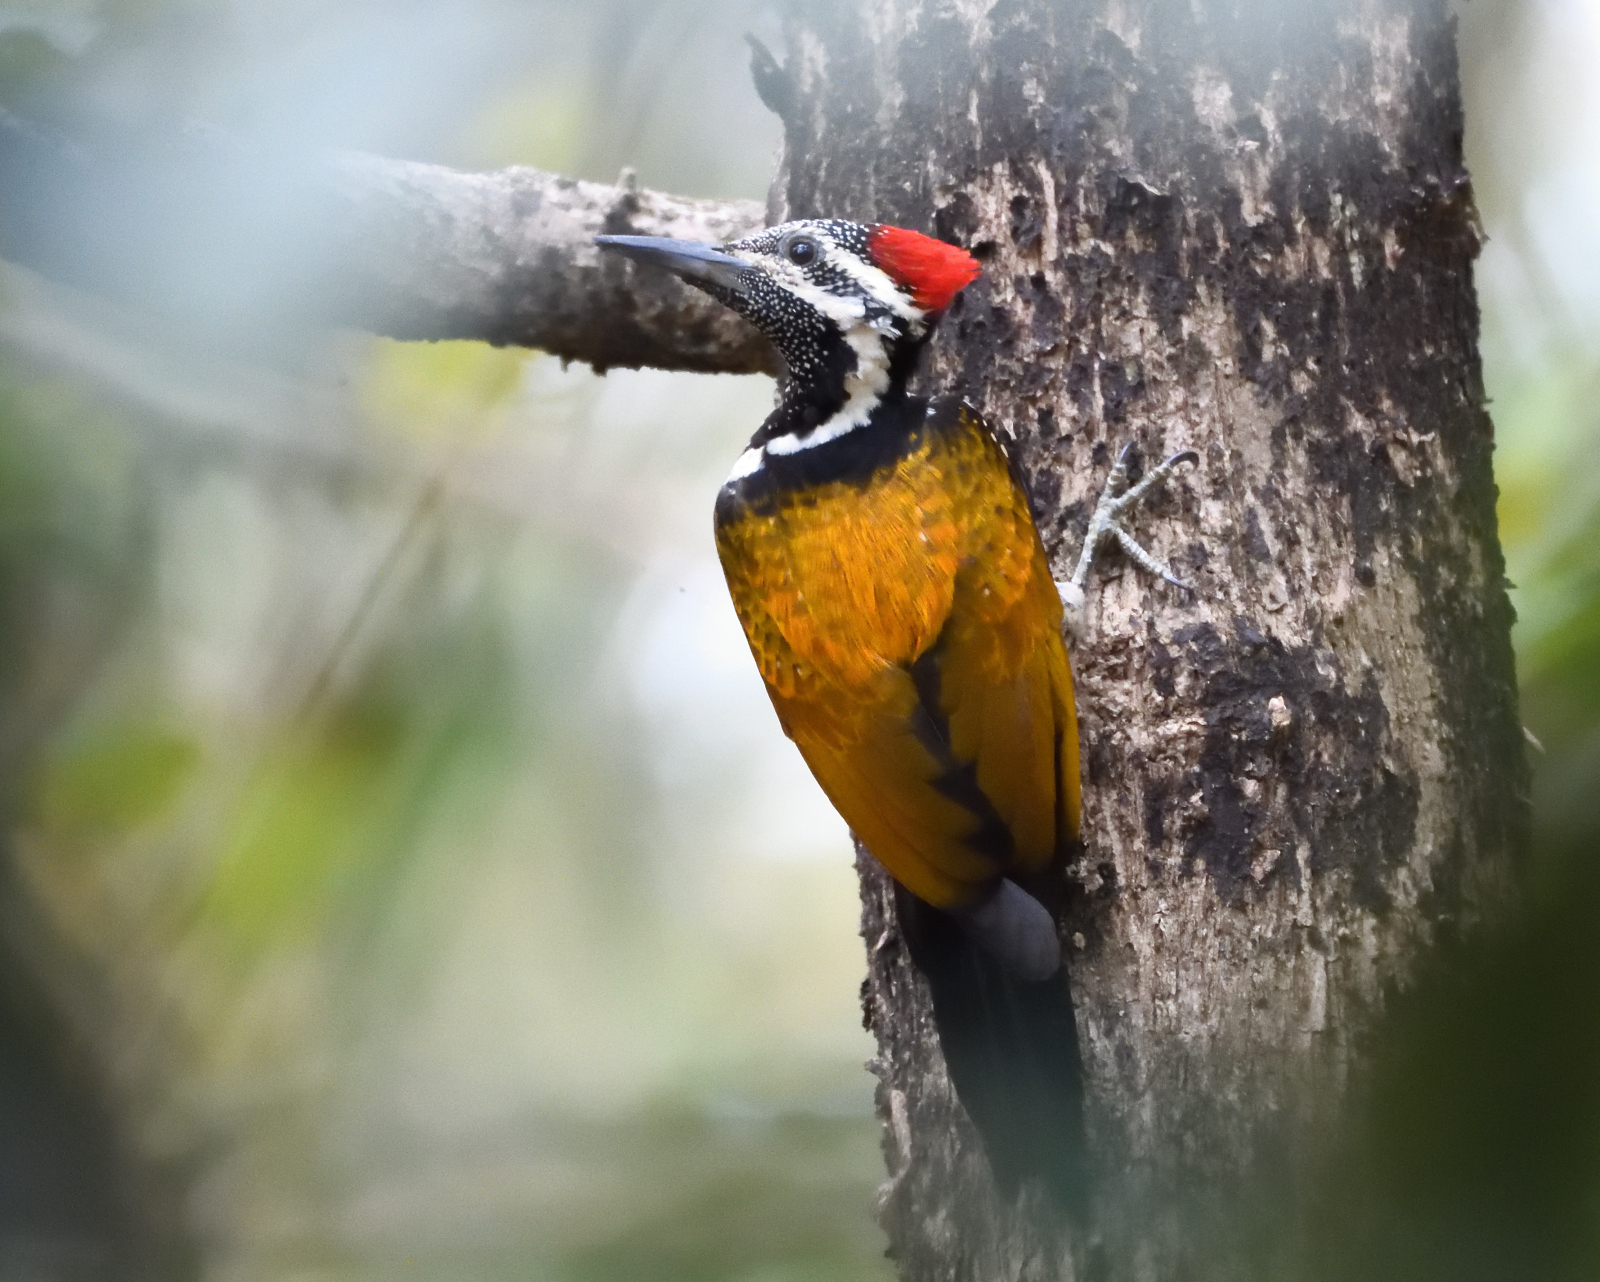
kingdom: Animalia
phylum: Chordata
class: Aves
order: Piciformes
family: Picidae
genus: Dinopium
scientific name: Dinopium benghalense
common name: Black-rumped flameback
